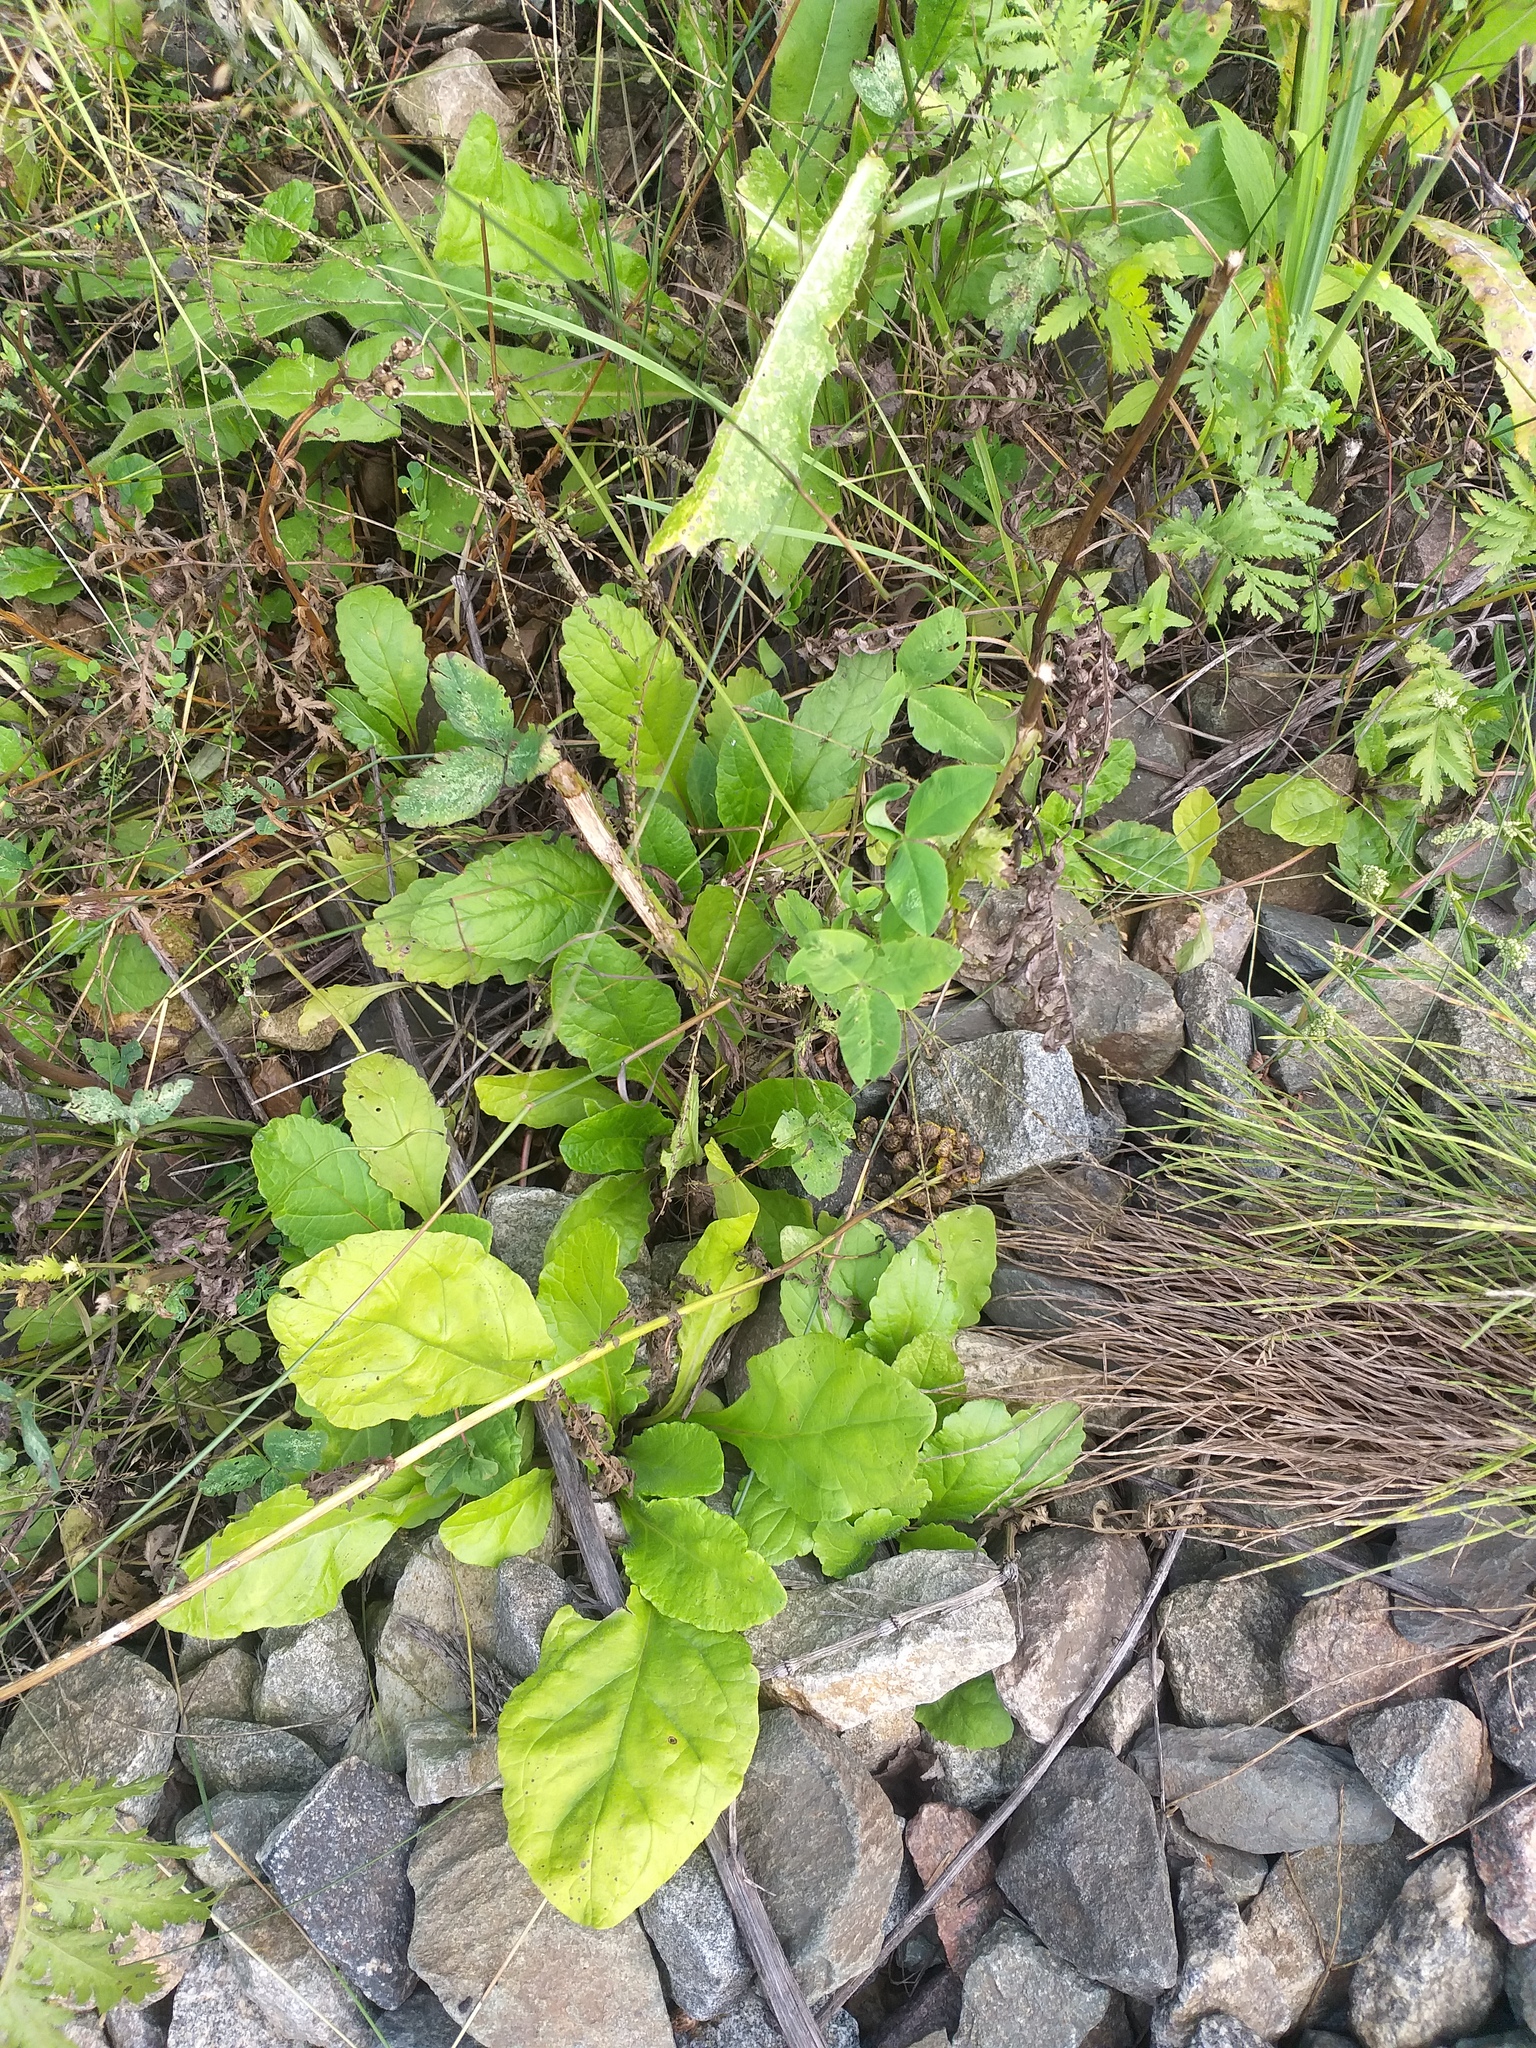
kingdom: Plantae
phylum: Tracheophyta
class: Magnoliopsida
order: Lamiales
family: Lamiaceae
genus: Ajuga
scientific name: Ajuga reptans
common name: Bugle
